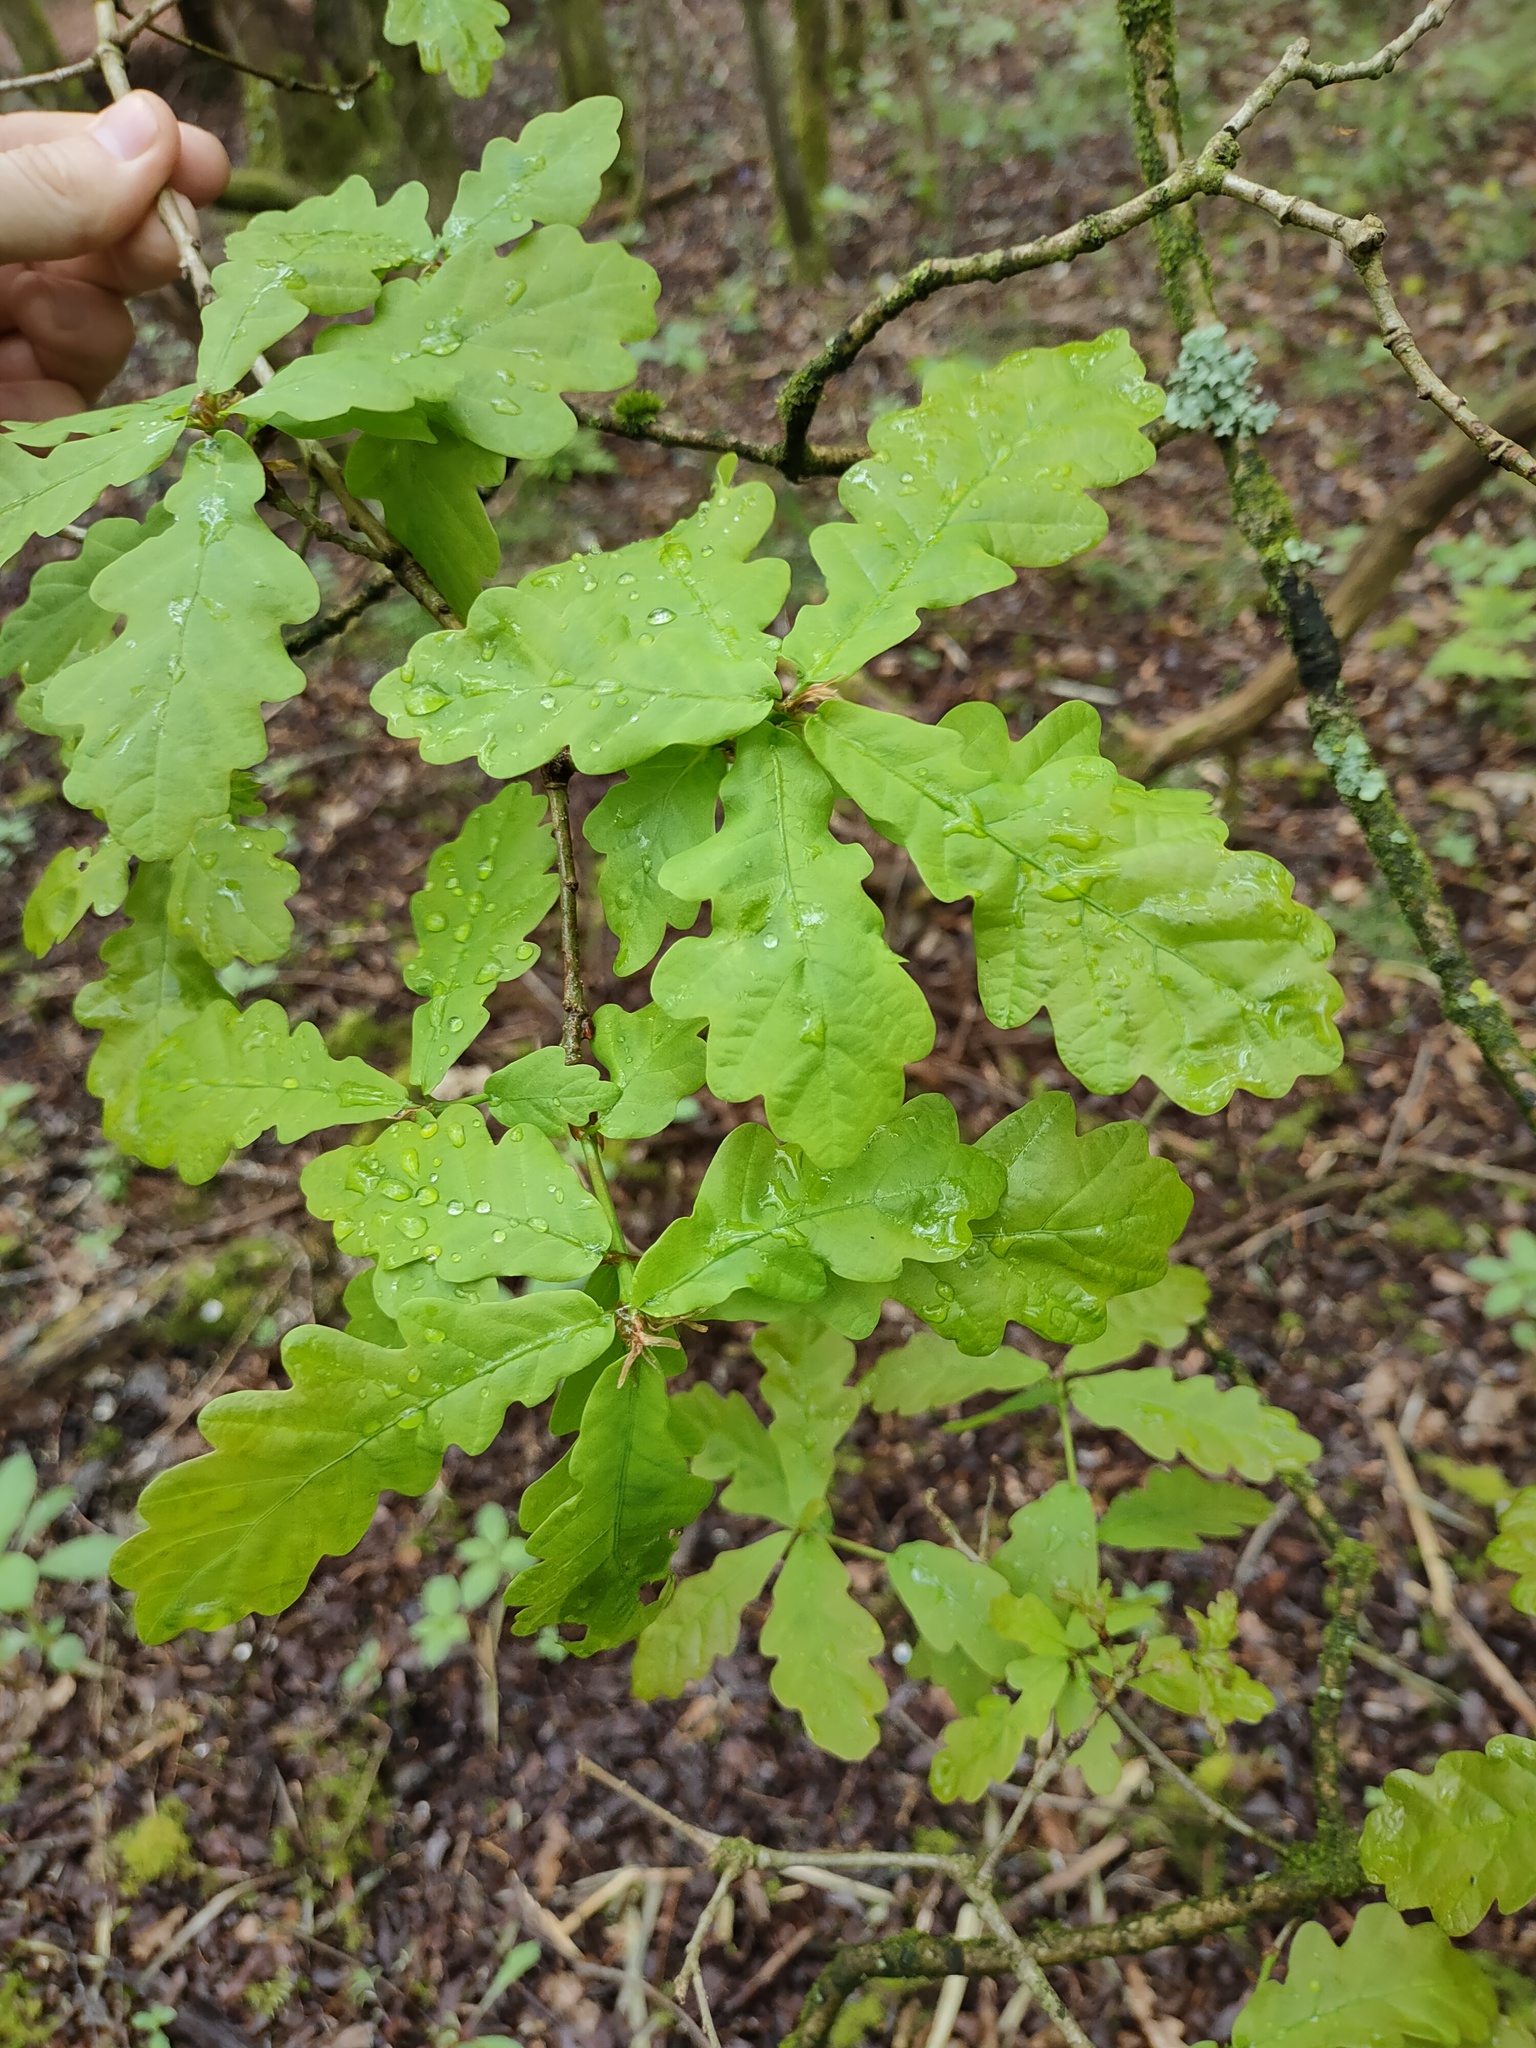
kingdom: Plantae
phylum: Tracheophyta
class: Magnoliopsida
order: Fagales
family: Fagaceae
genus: Quercus
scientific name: Quercus robur
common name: Pedunculate oak
